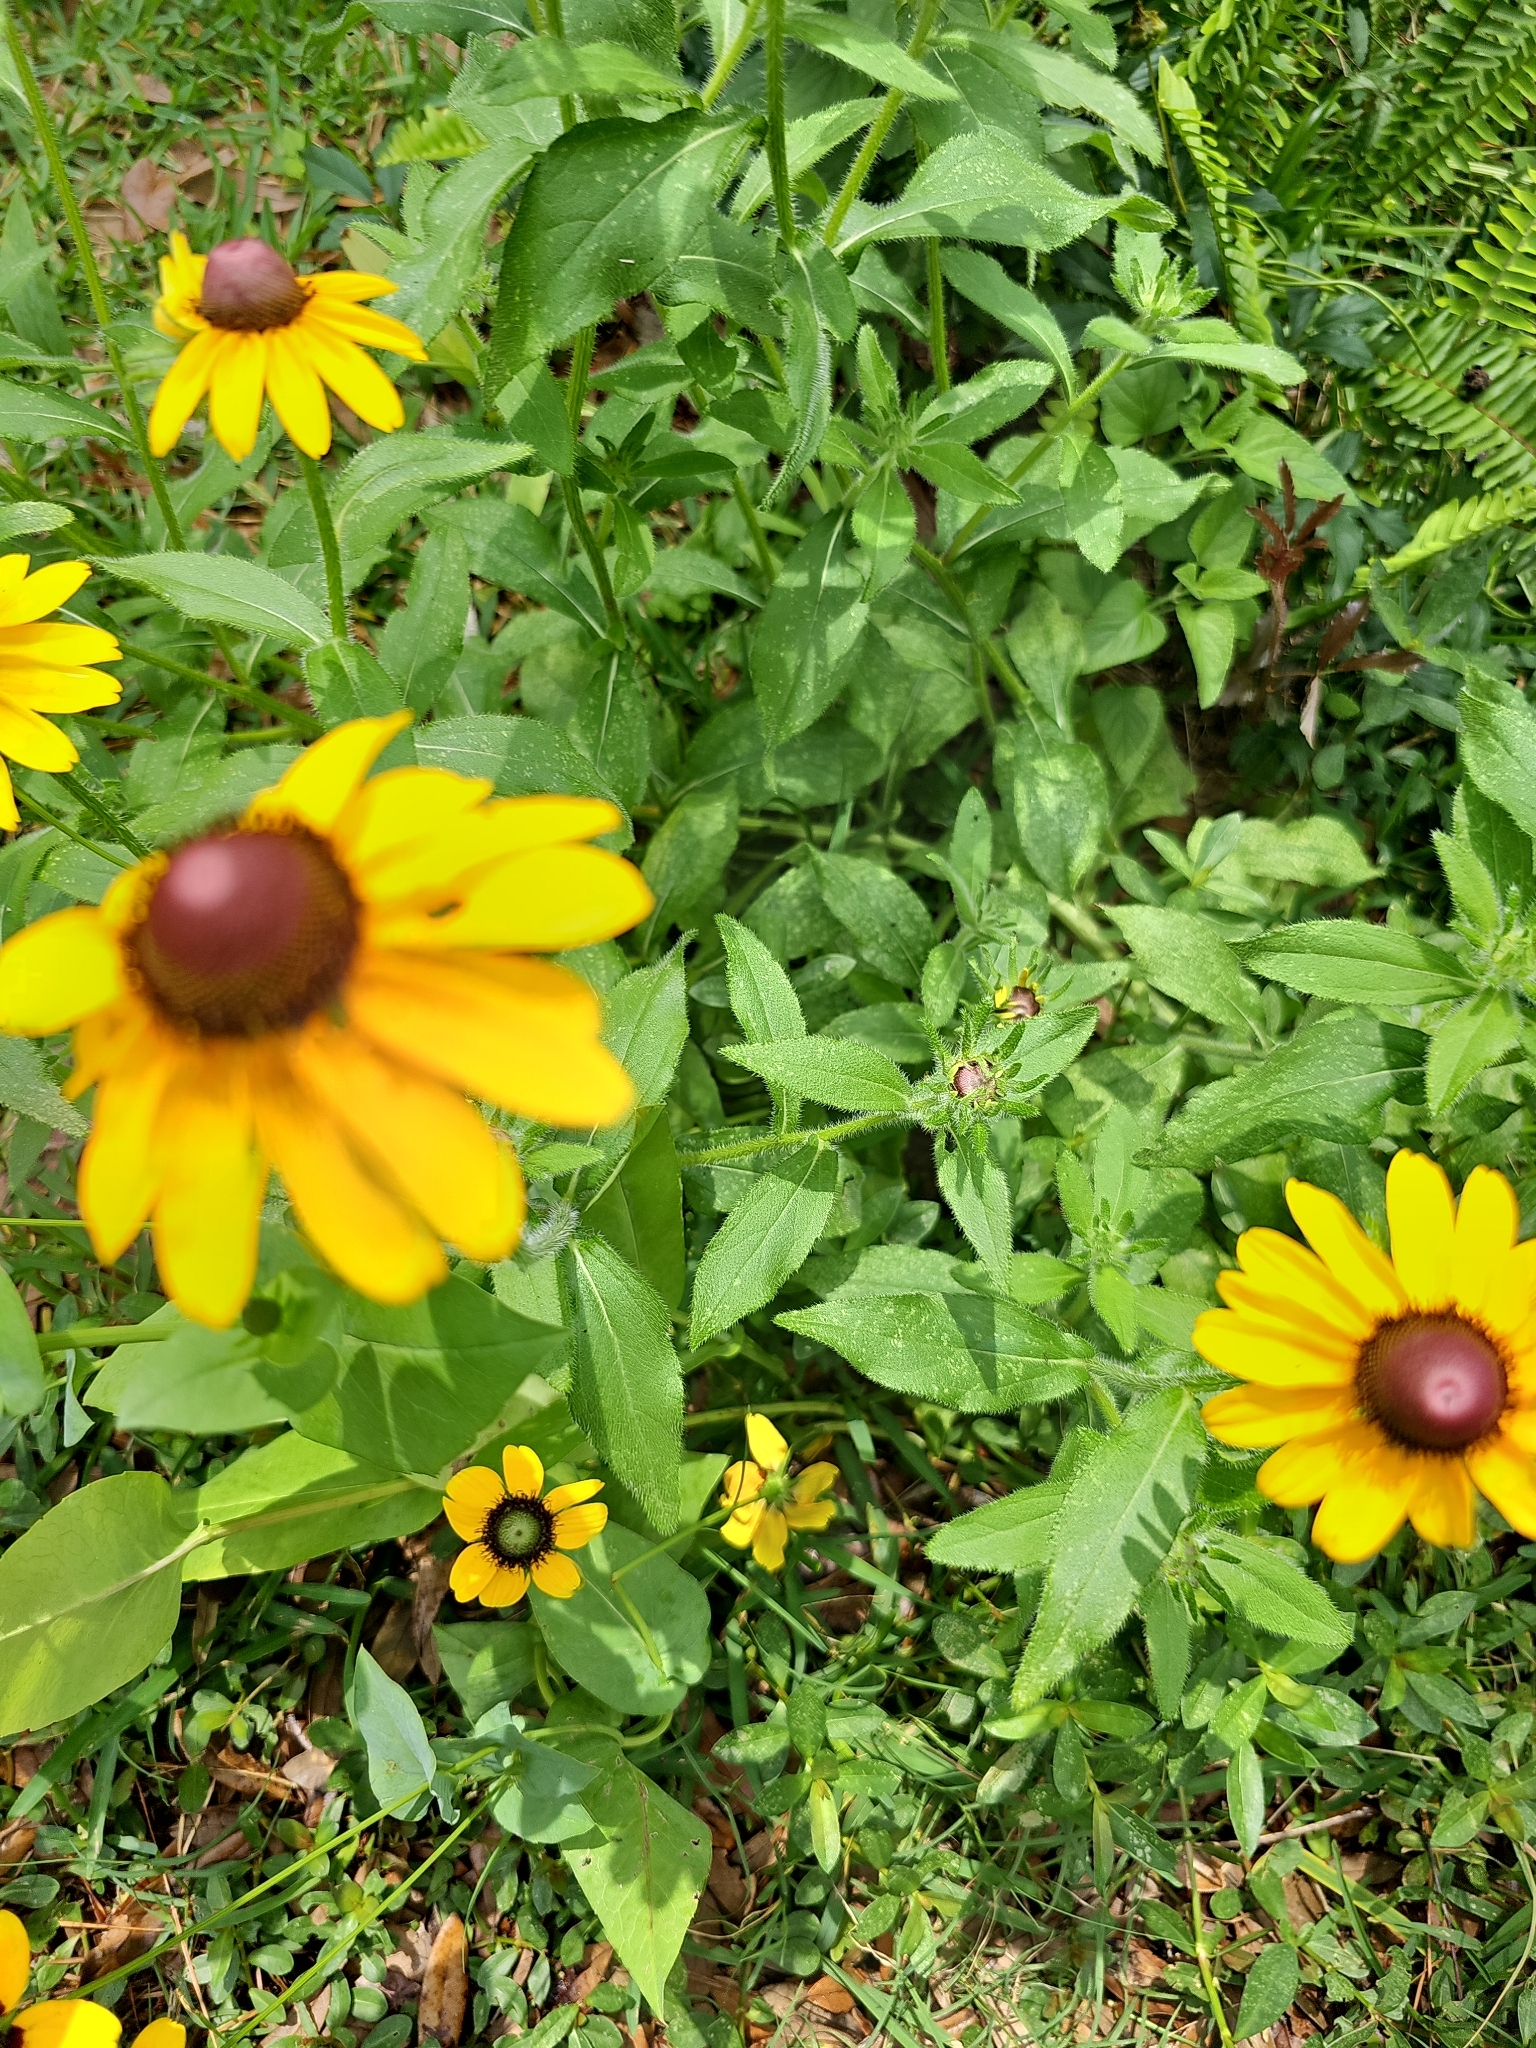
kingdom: Plantae
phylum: Tracheophyta
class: Magnoliopsida
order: Asterales
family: Asteraceae
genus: Rudbeckia
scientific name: Rudbeckia hirta
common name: Black-eyed-susan
